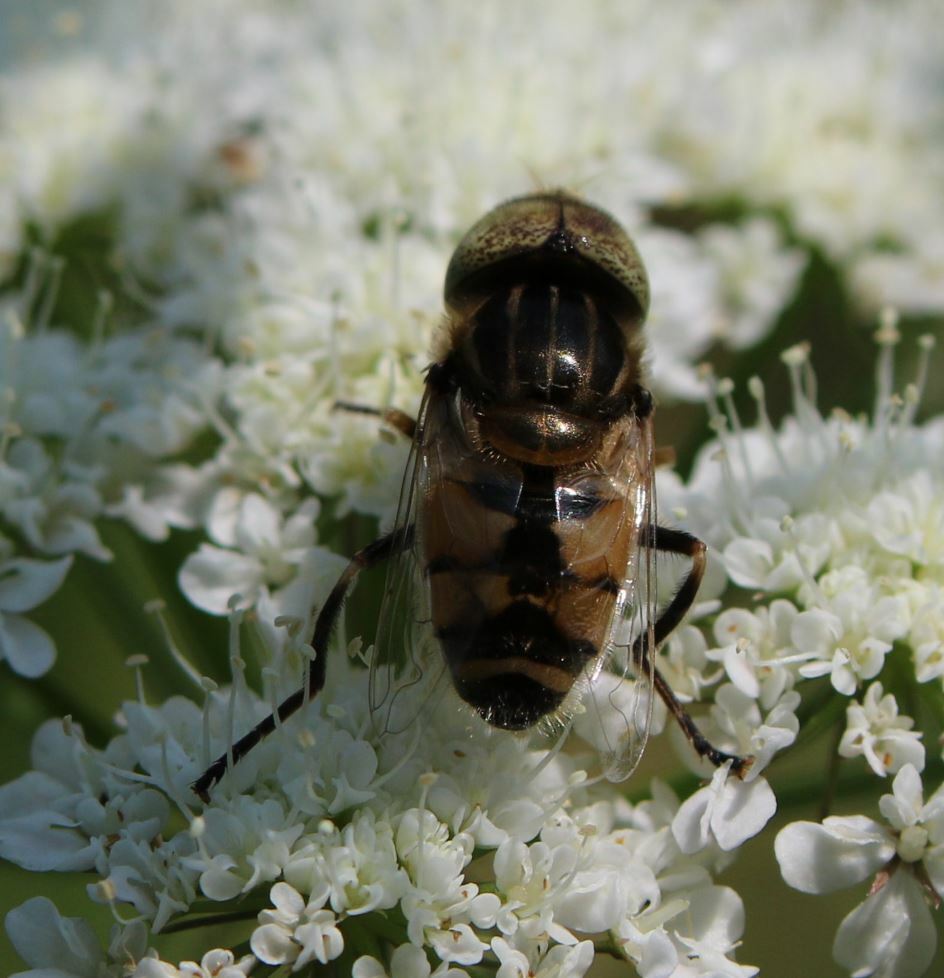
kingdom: Animalia
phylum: Arthropoda
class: Insecta
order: Diptera
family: Syrphidae
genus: Eristalinus
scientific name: Eristalinus megacephalus
